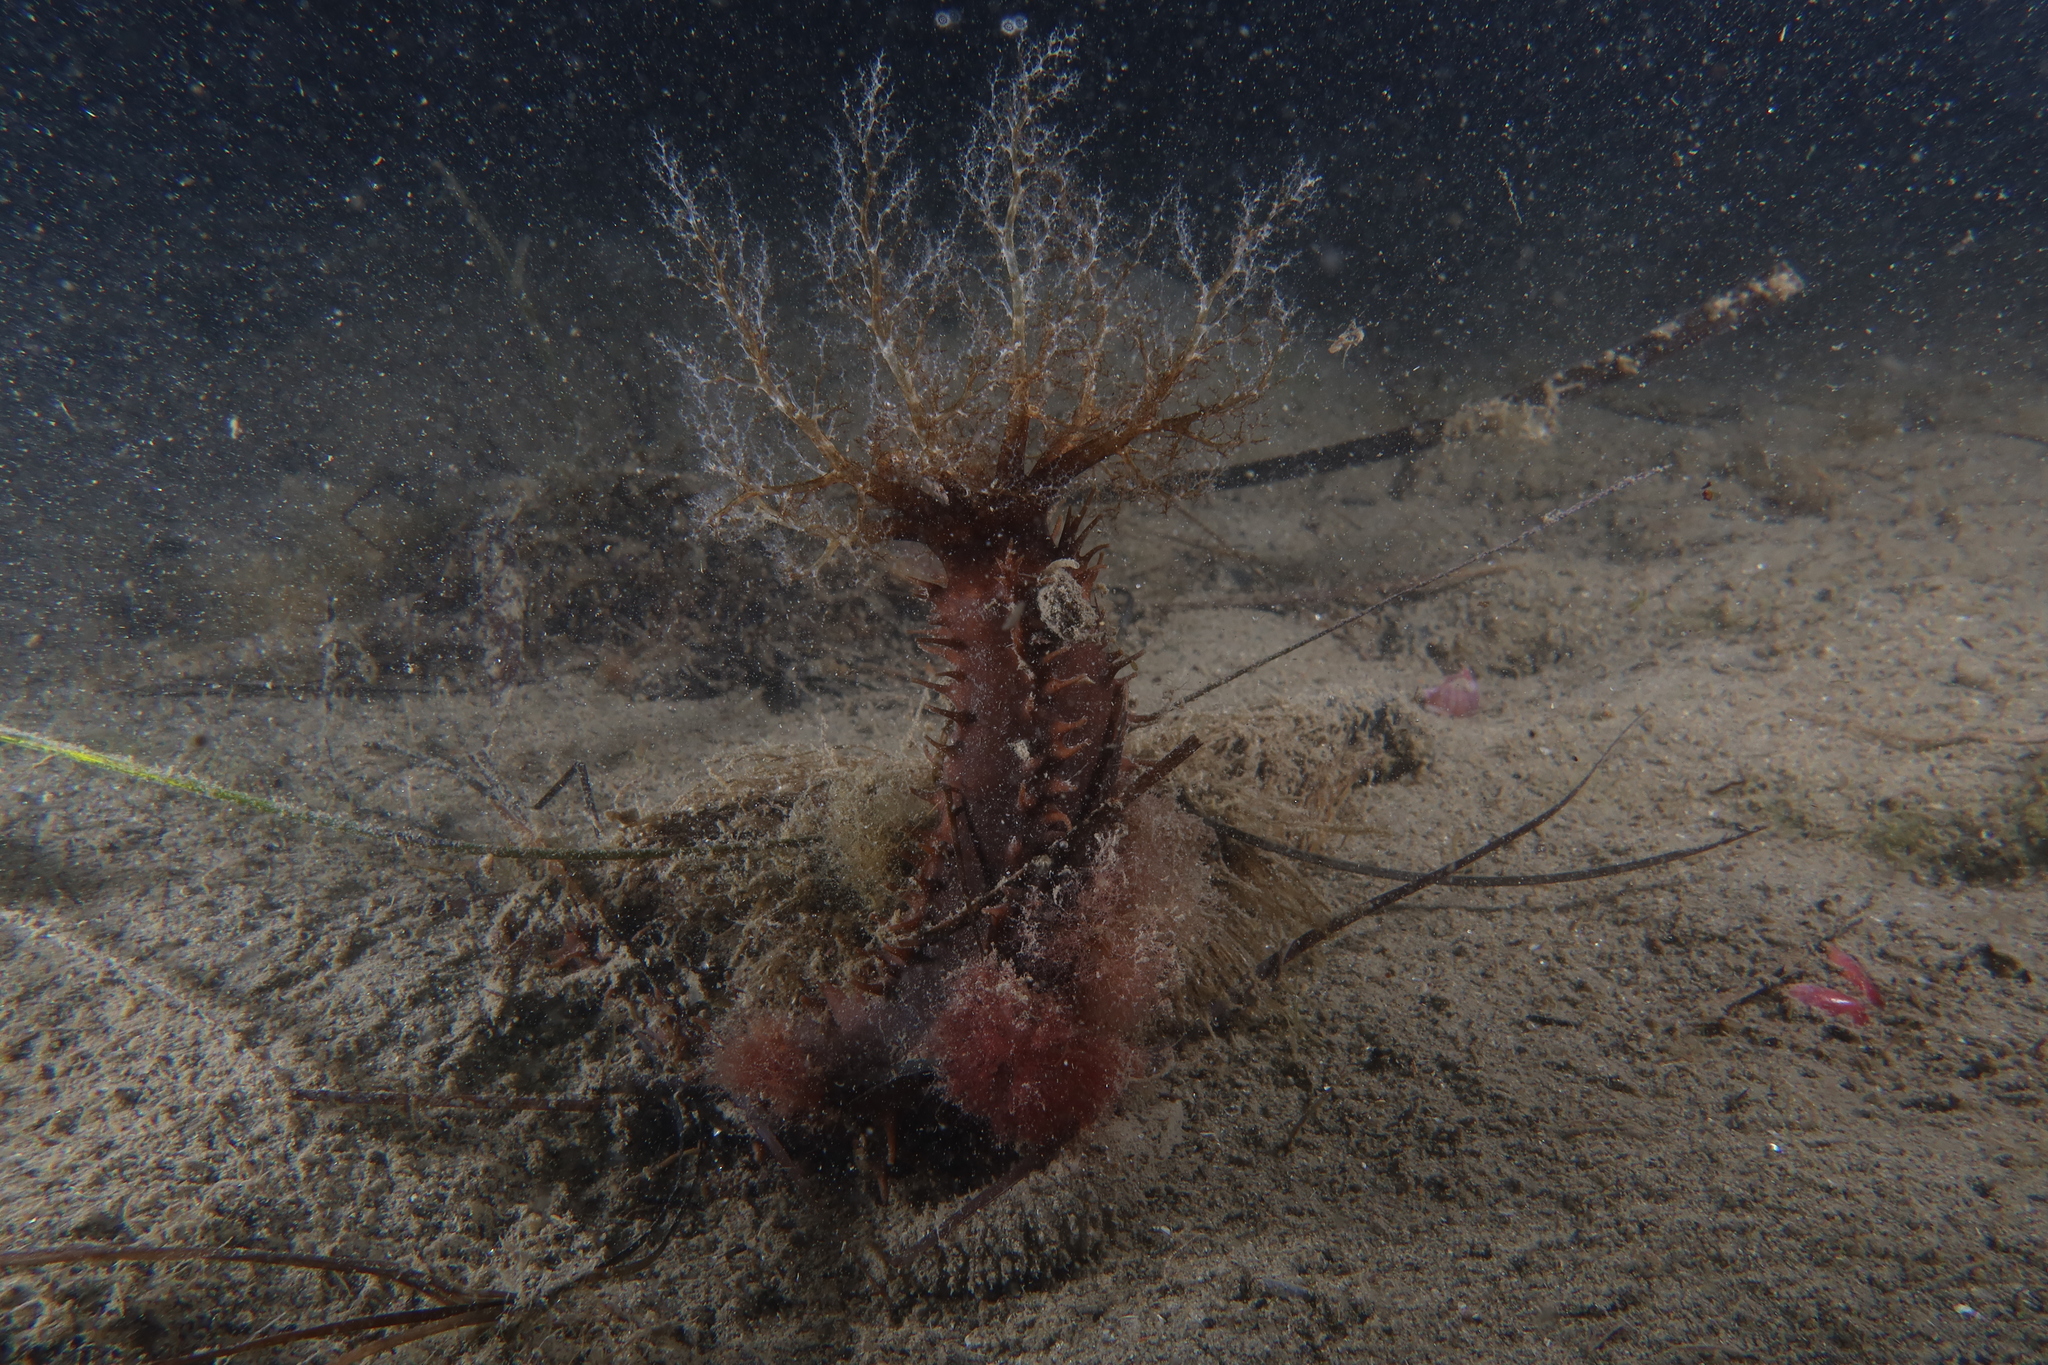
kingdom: Animalia
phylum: Echinodermata
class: Holothuroidea
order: Dendrochirotida
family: Cucumariidae
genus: Ocnus
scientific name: Ocnus planci
